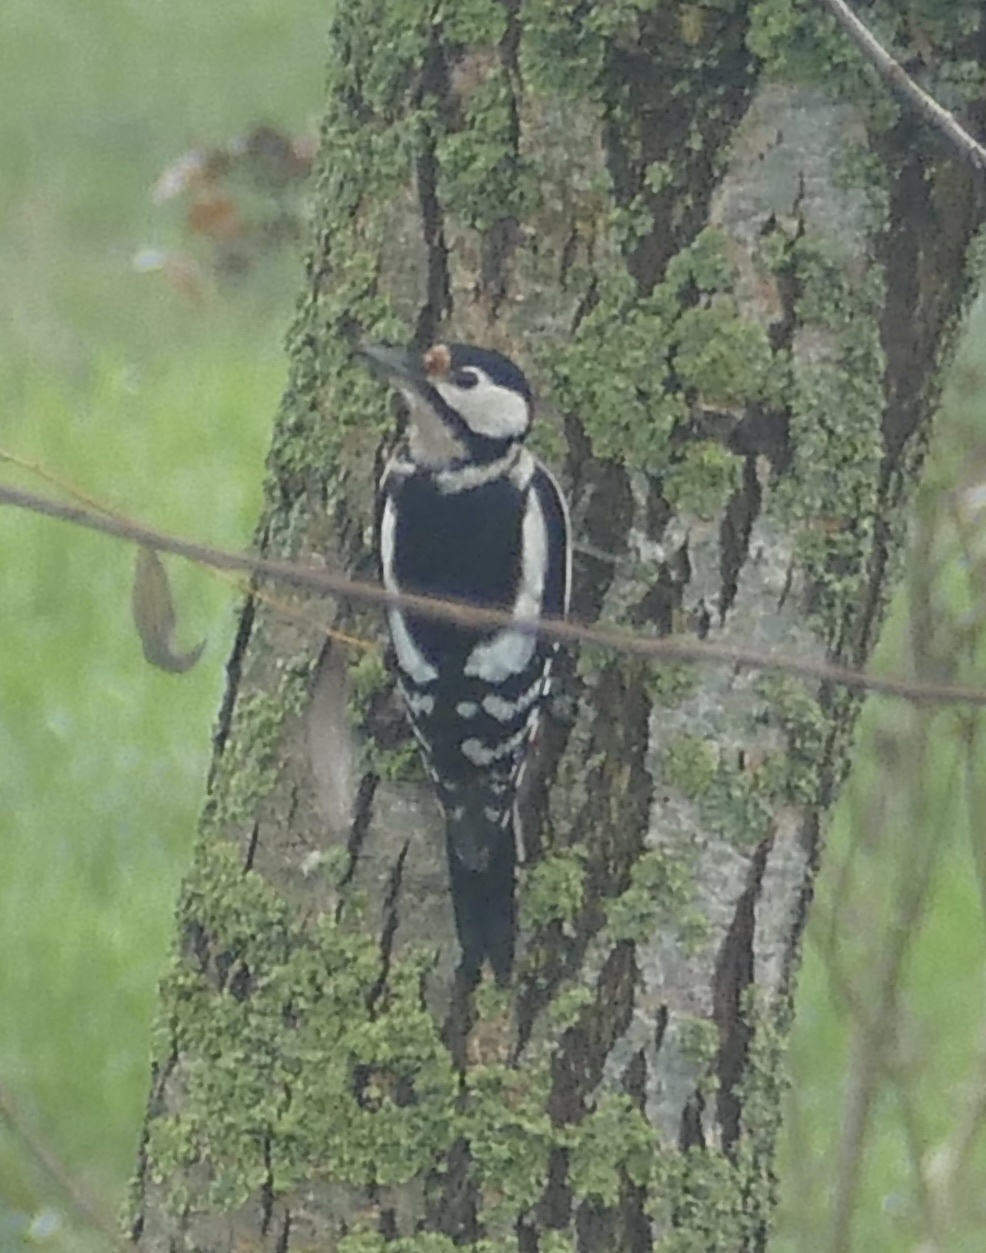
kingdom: Animalia
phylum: Chordata
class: Aves
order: Piciformes
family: Picidae
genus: Dendrocopos
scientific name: Dendrocopos major
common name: Great spotted woodpecker
